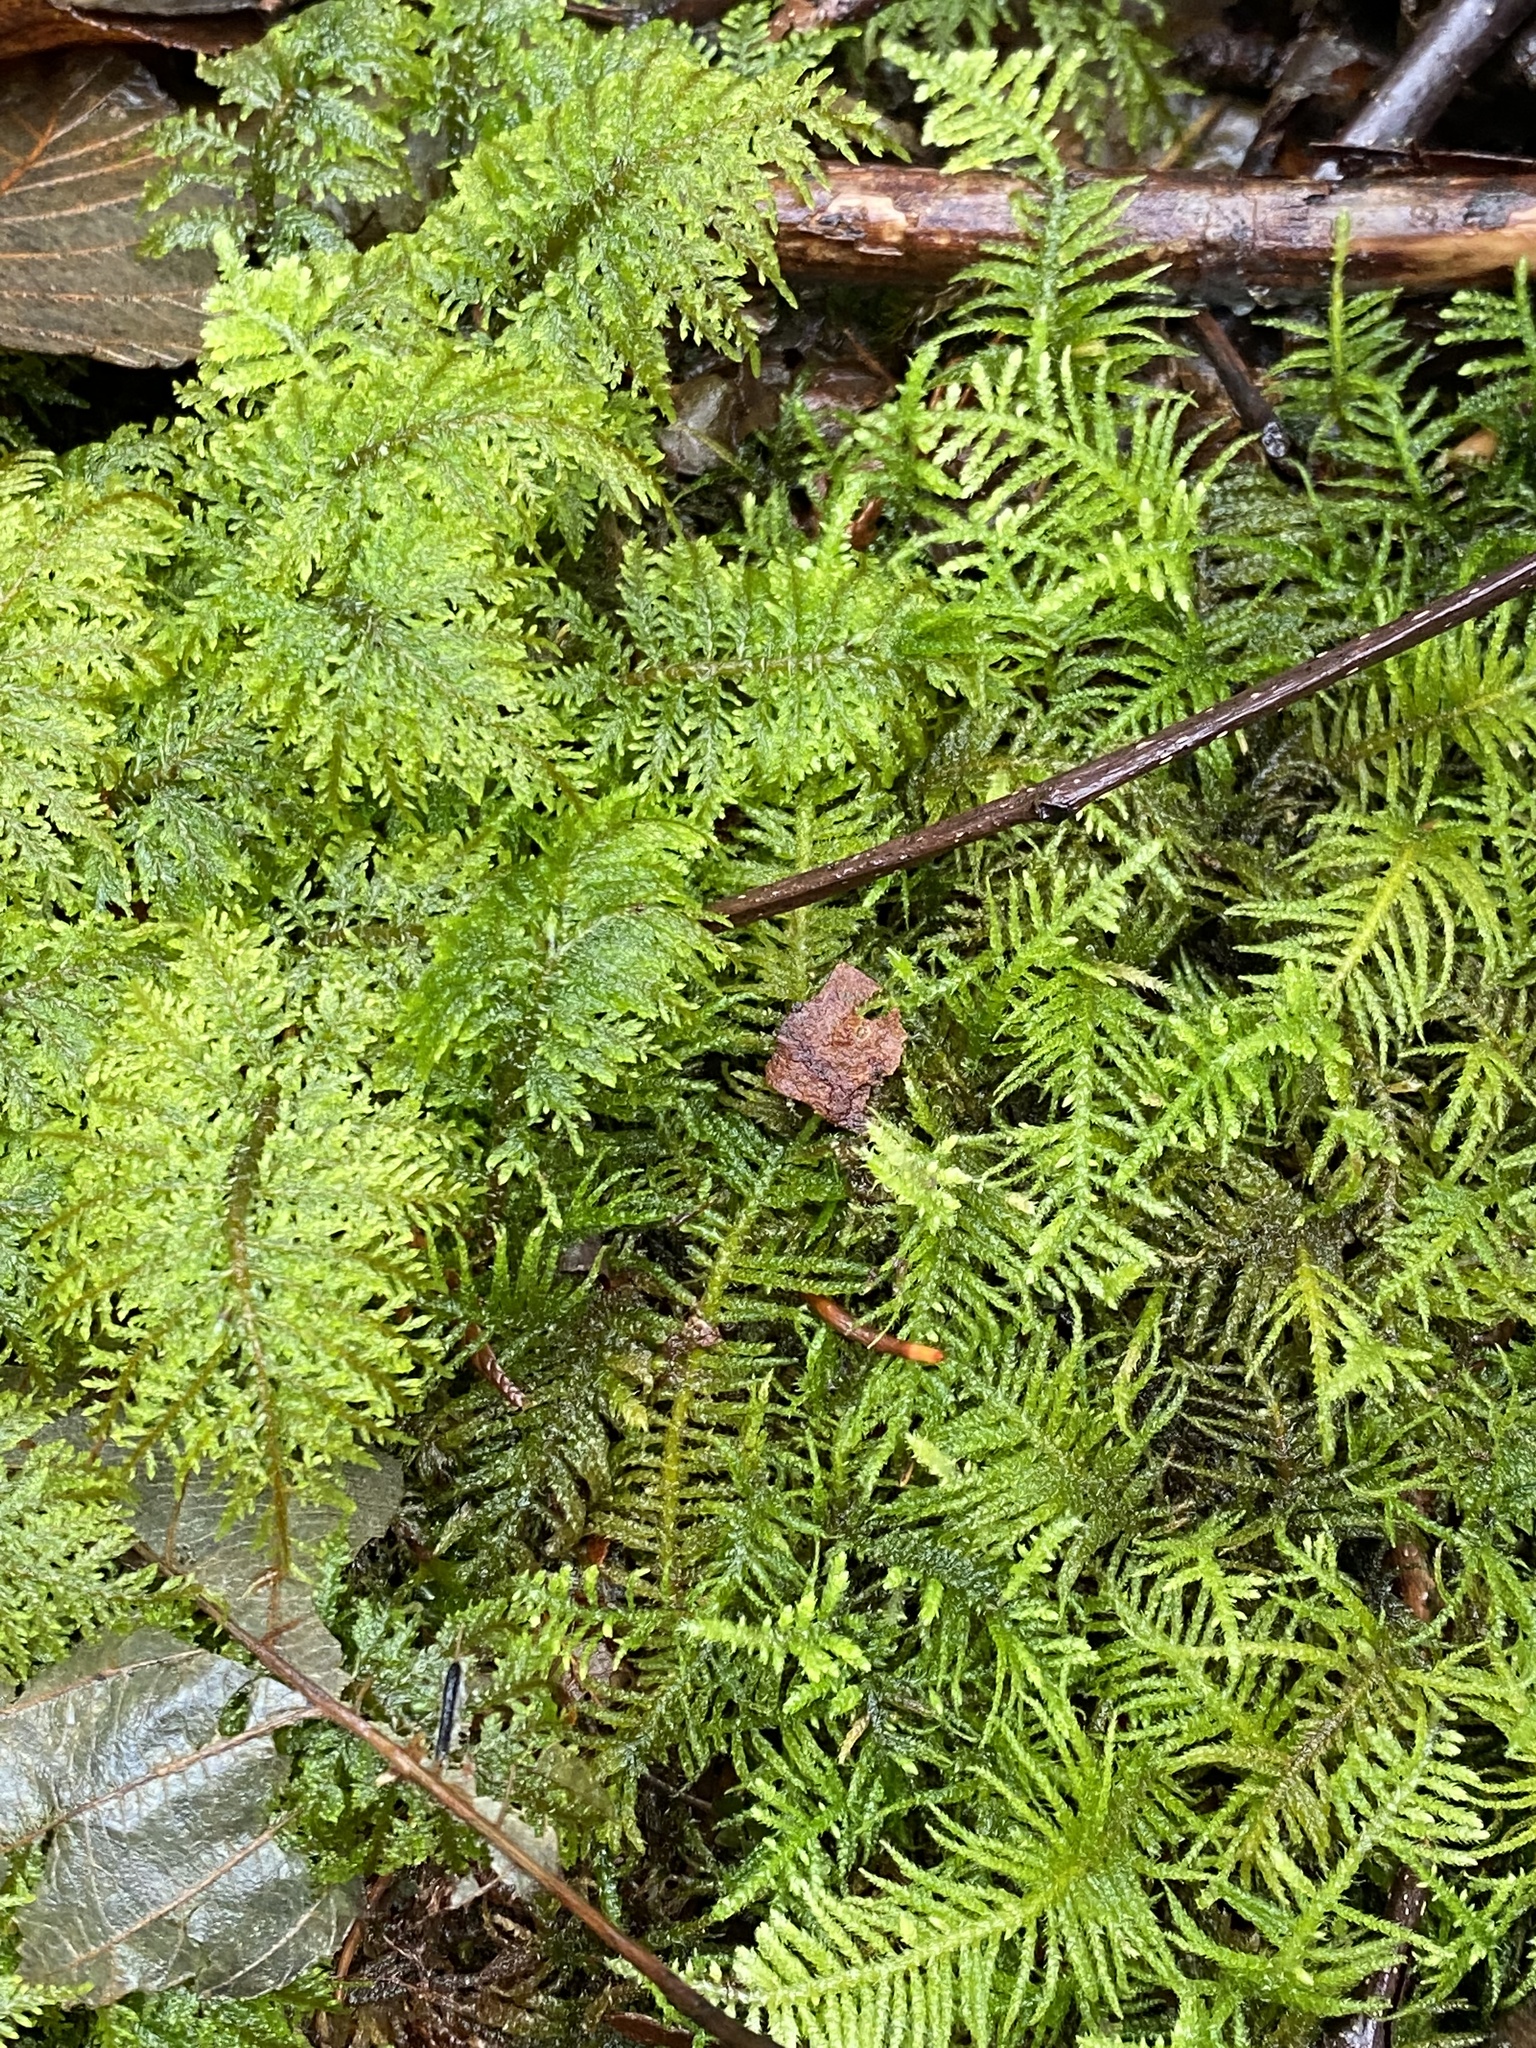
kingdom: Plantae
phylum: Bryophyta
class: Bryopsida
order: Hypnales
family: Brachytheciaceae
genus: Kindbergia
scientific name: Kindbergia oregana
